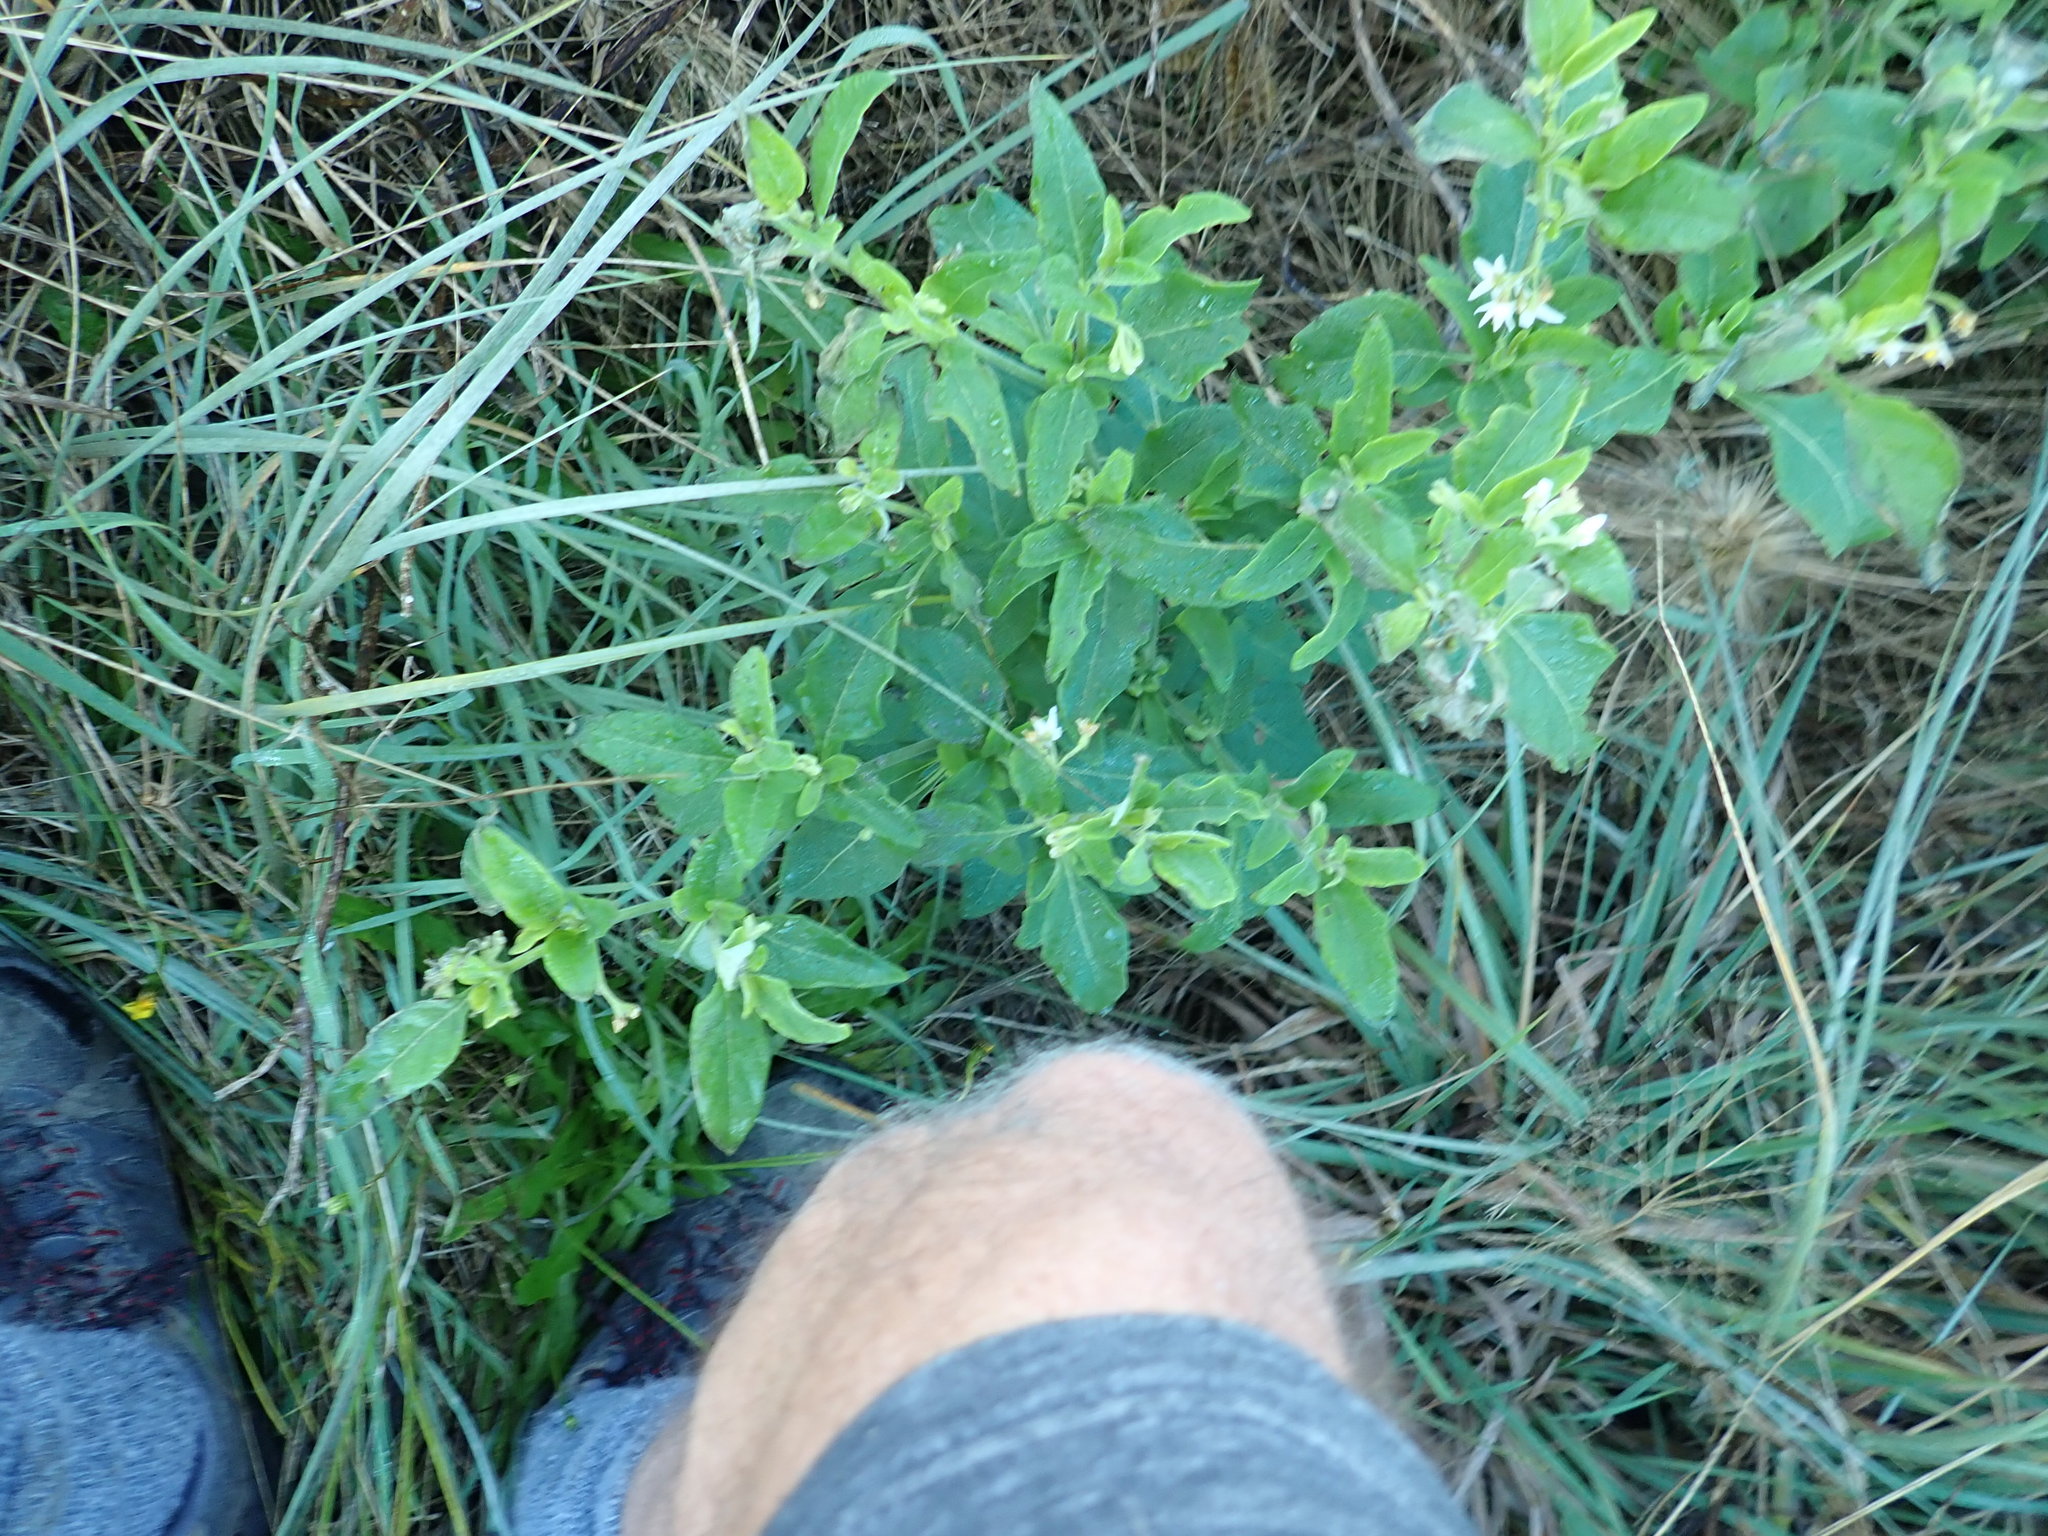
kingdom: Plantae
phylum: Tracheophyta
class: Magnoliopsida
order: Solanales
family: Solanaceae
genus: Solanum
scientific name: Solanum chenopodioides
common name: Tall nightshade
